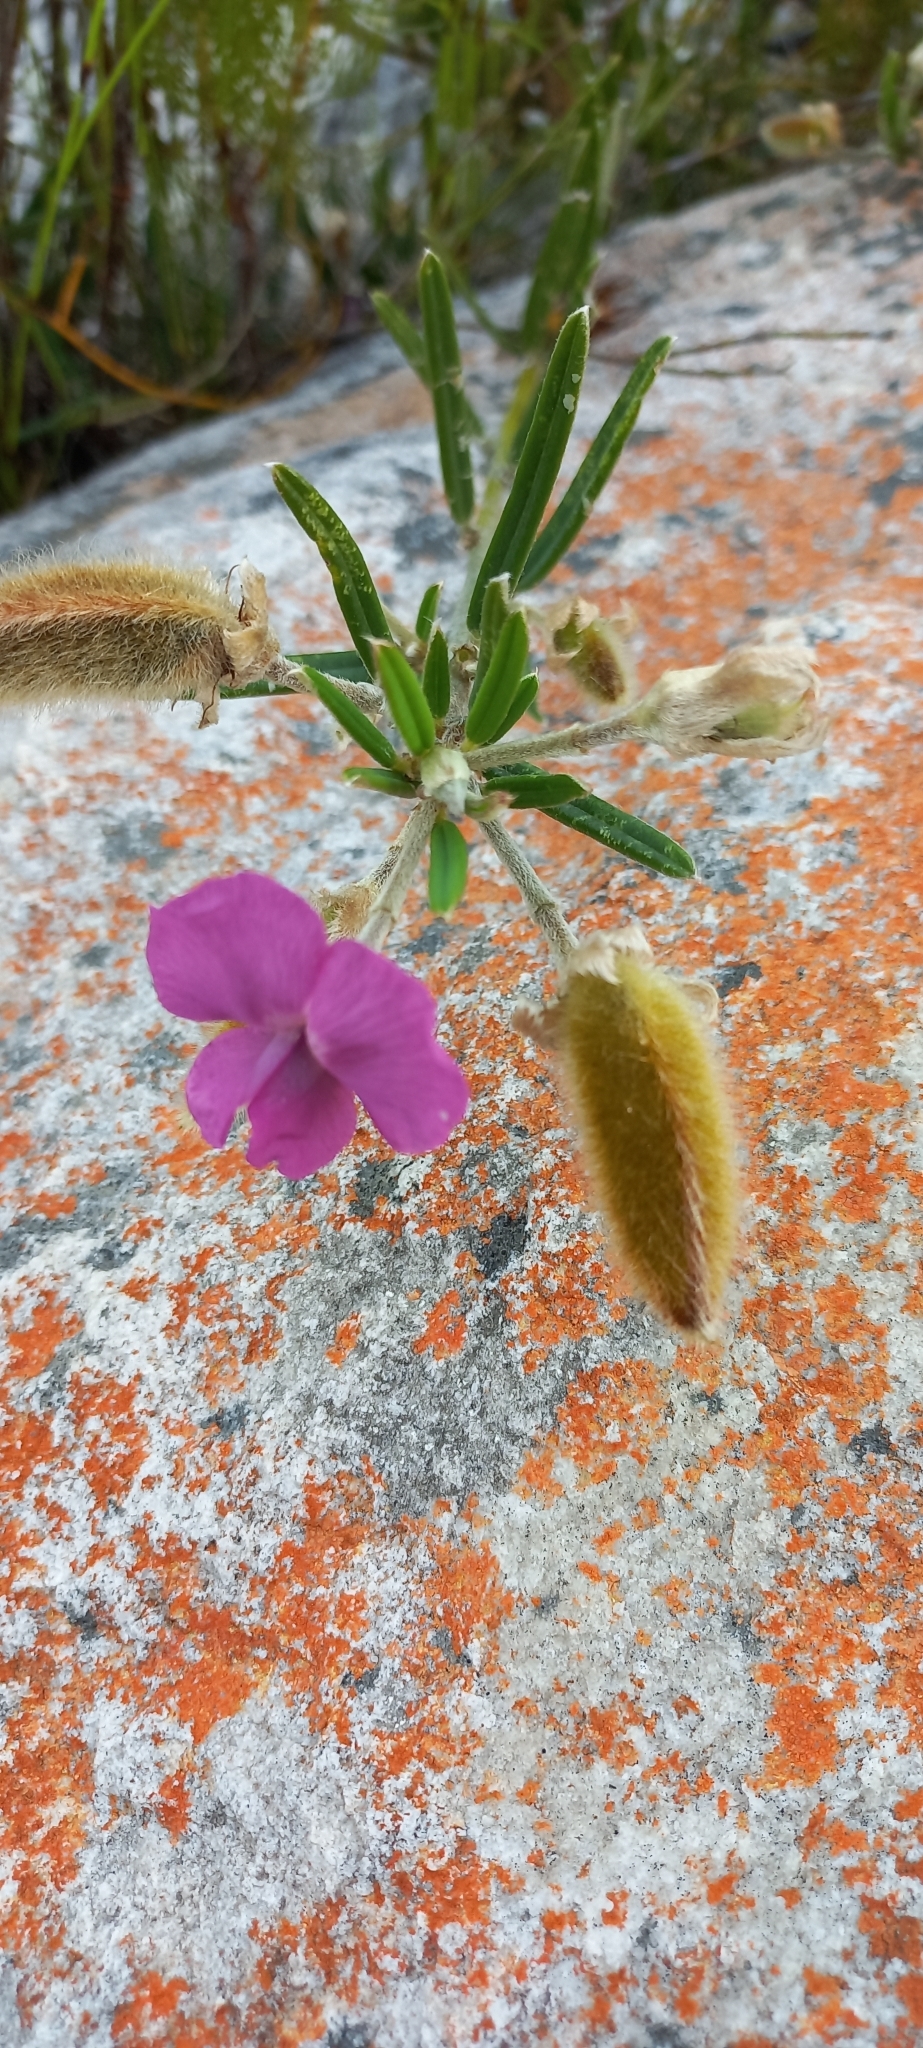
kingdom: Plantae
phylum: Tracheophyta
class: Magnoliopsida
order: Fabales
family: Fabaceae
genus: Podalyria
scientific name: Podalyria oleifolia
